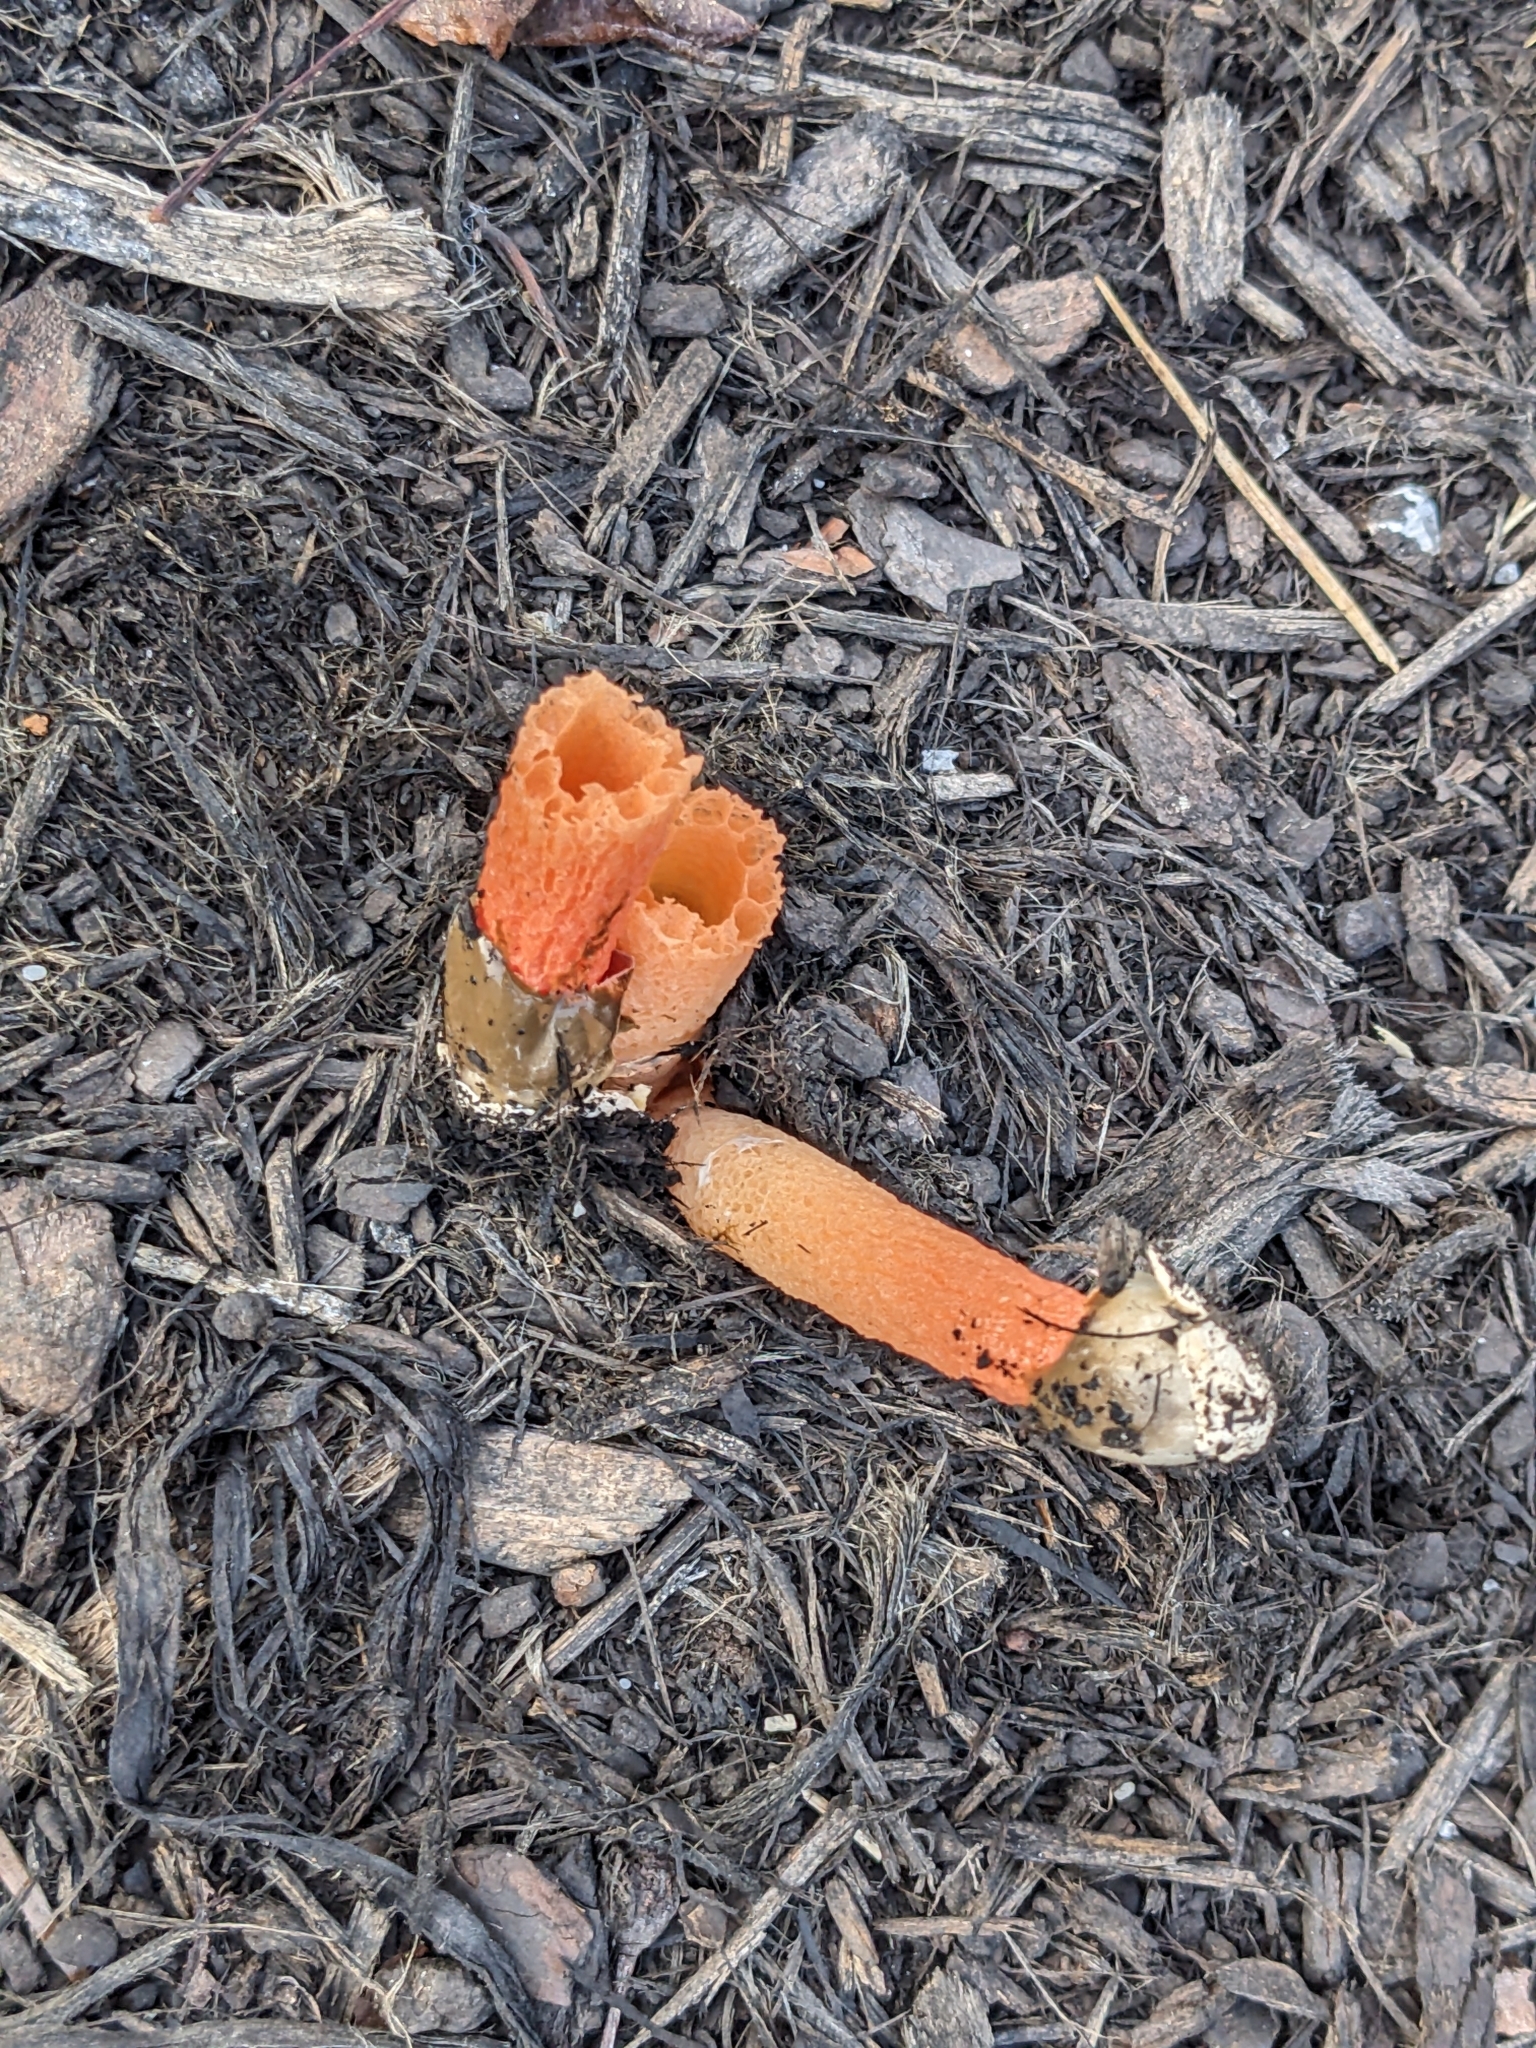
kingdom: Fungi
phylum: Basidiomycota
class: Agaricomycetes
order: Phallales
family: Phallaceae
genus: Phallus
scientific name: Phallus rugulosus
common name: Wrinkly stinkhorn
